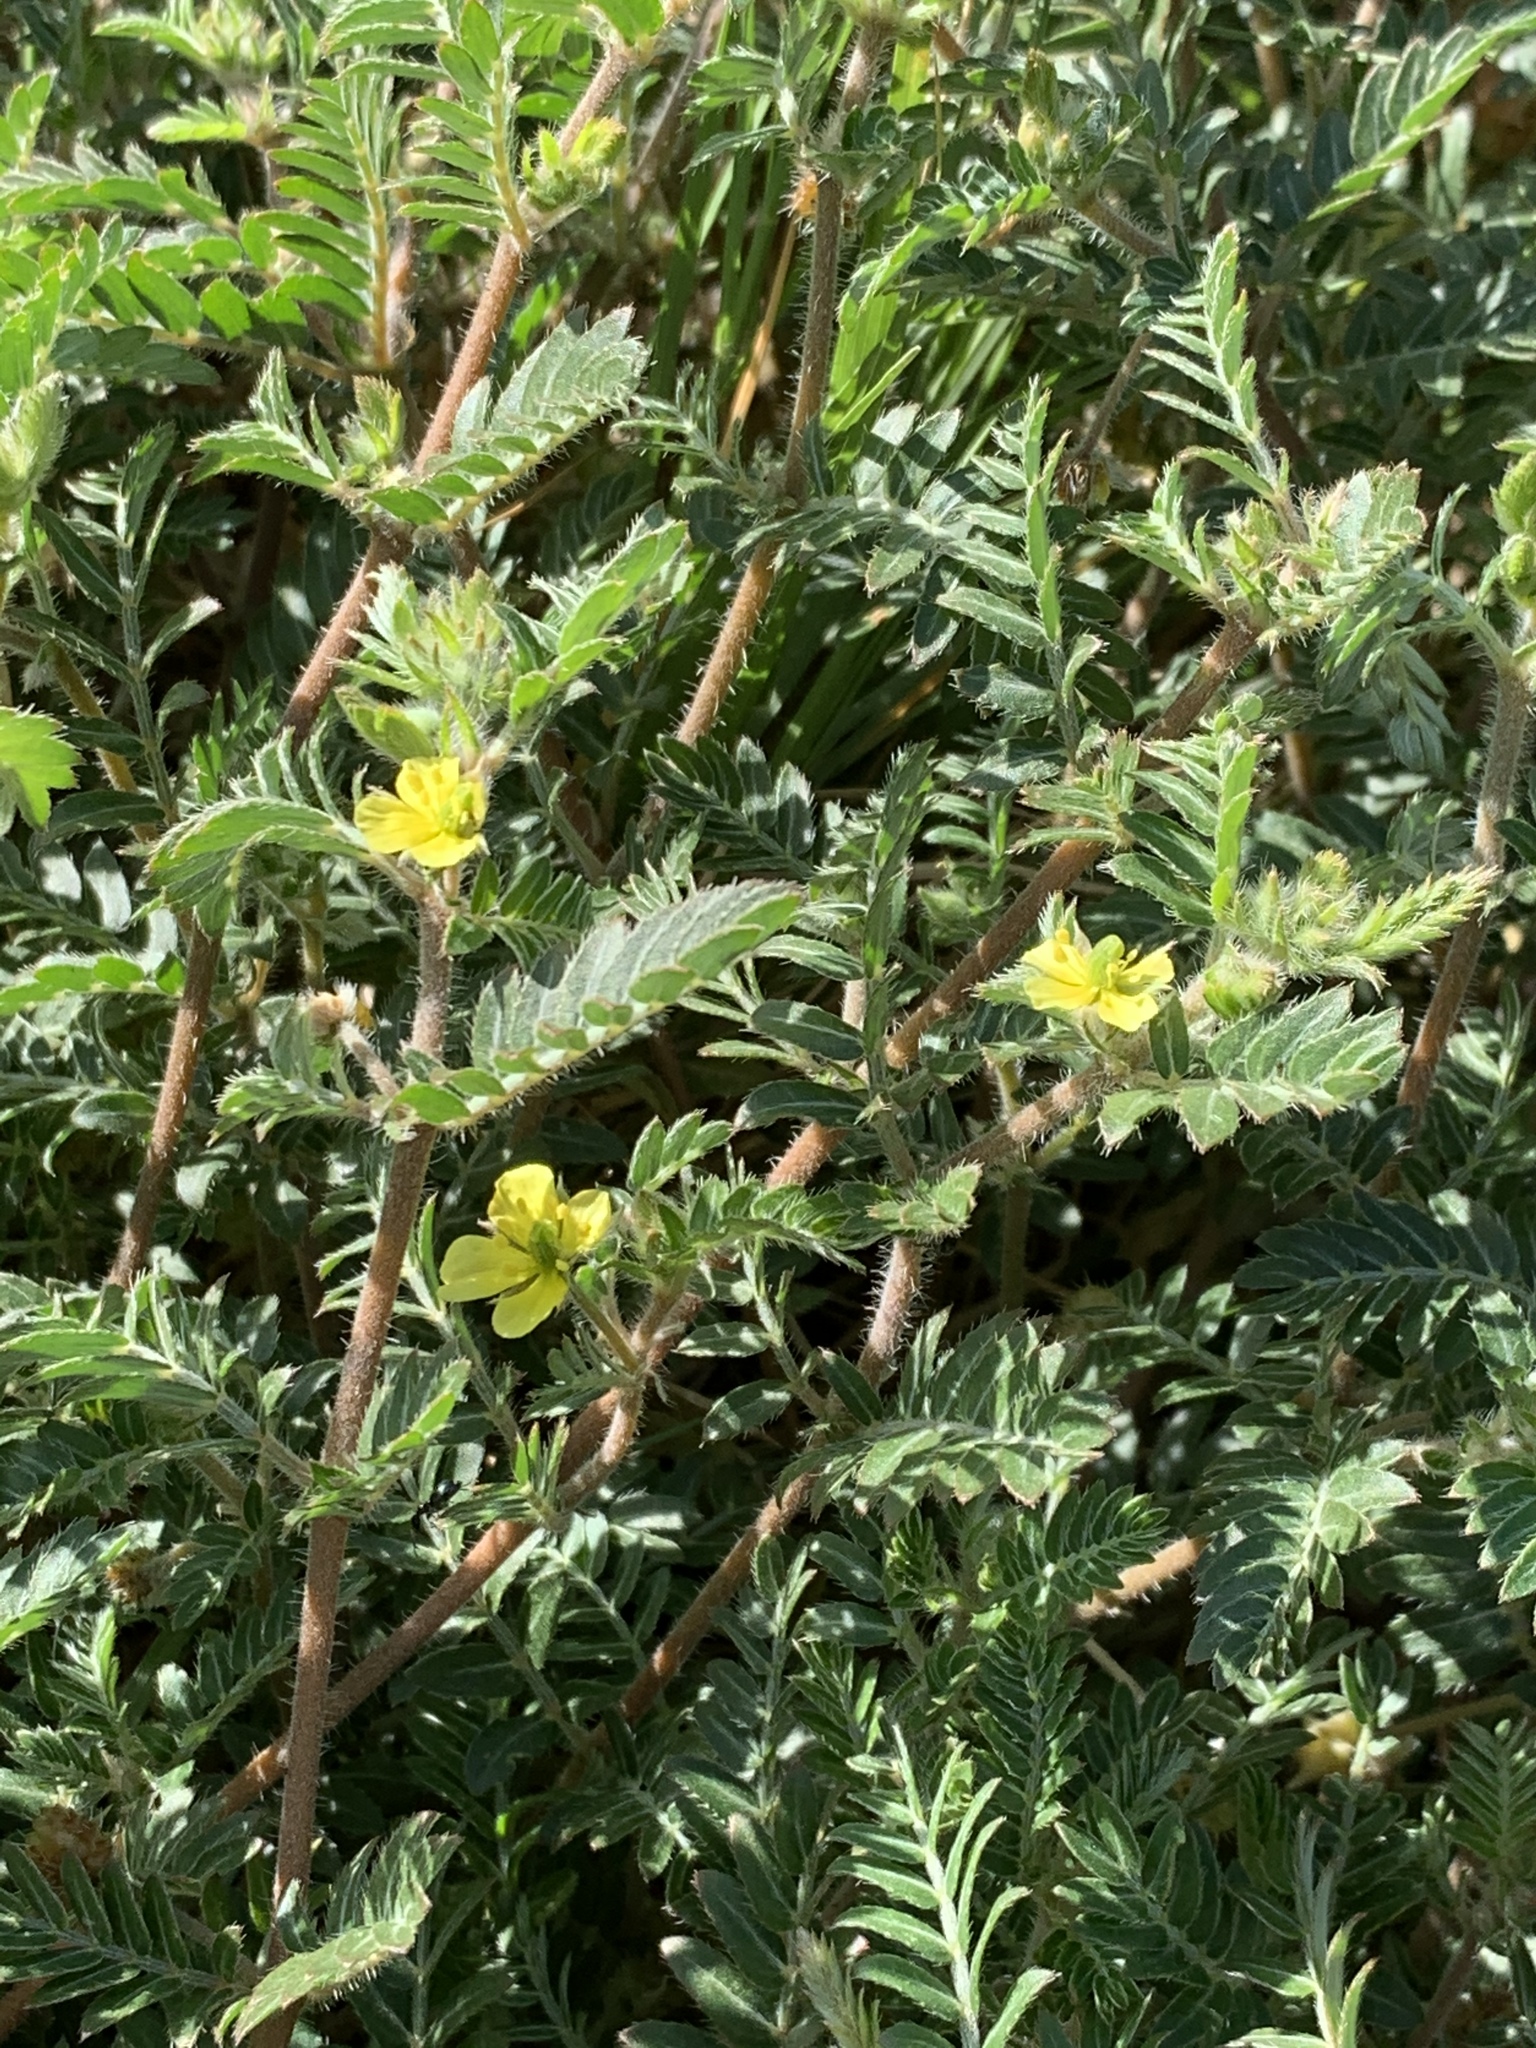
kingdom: Plantae
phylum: Tracheophyta
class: Magnoliopsida
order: Zygophyllales
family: Zygophyllaceae
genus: Tribulus
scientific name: Tribulus terrestris
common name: Puncturevine
